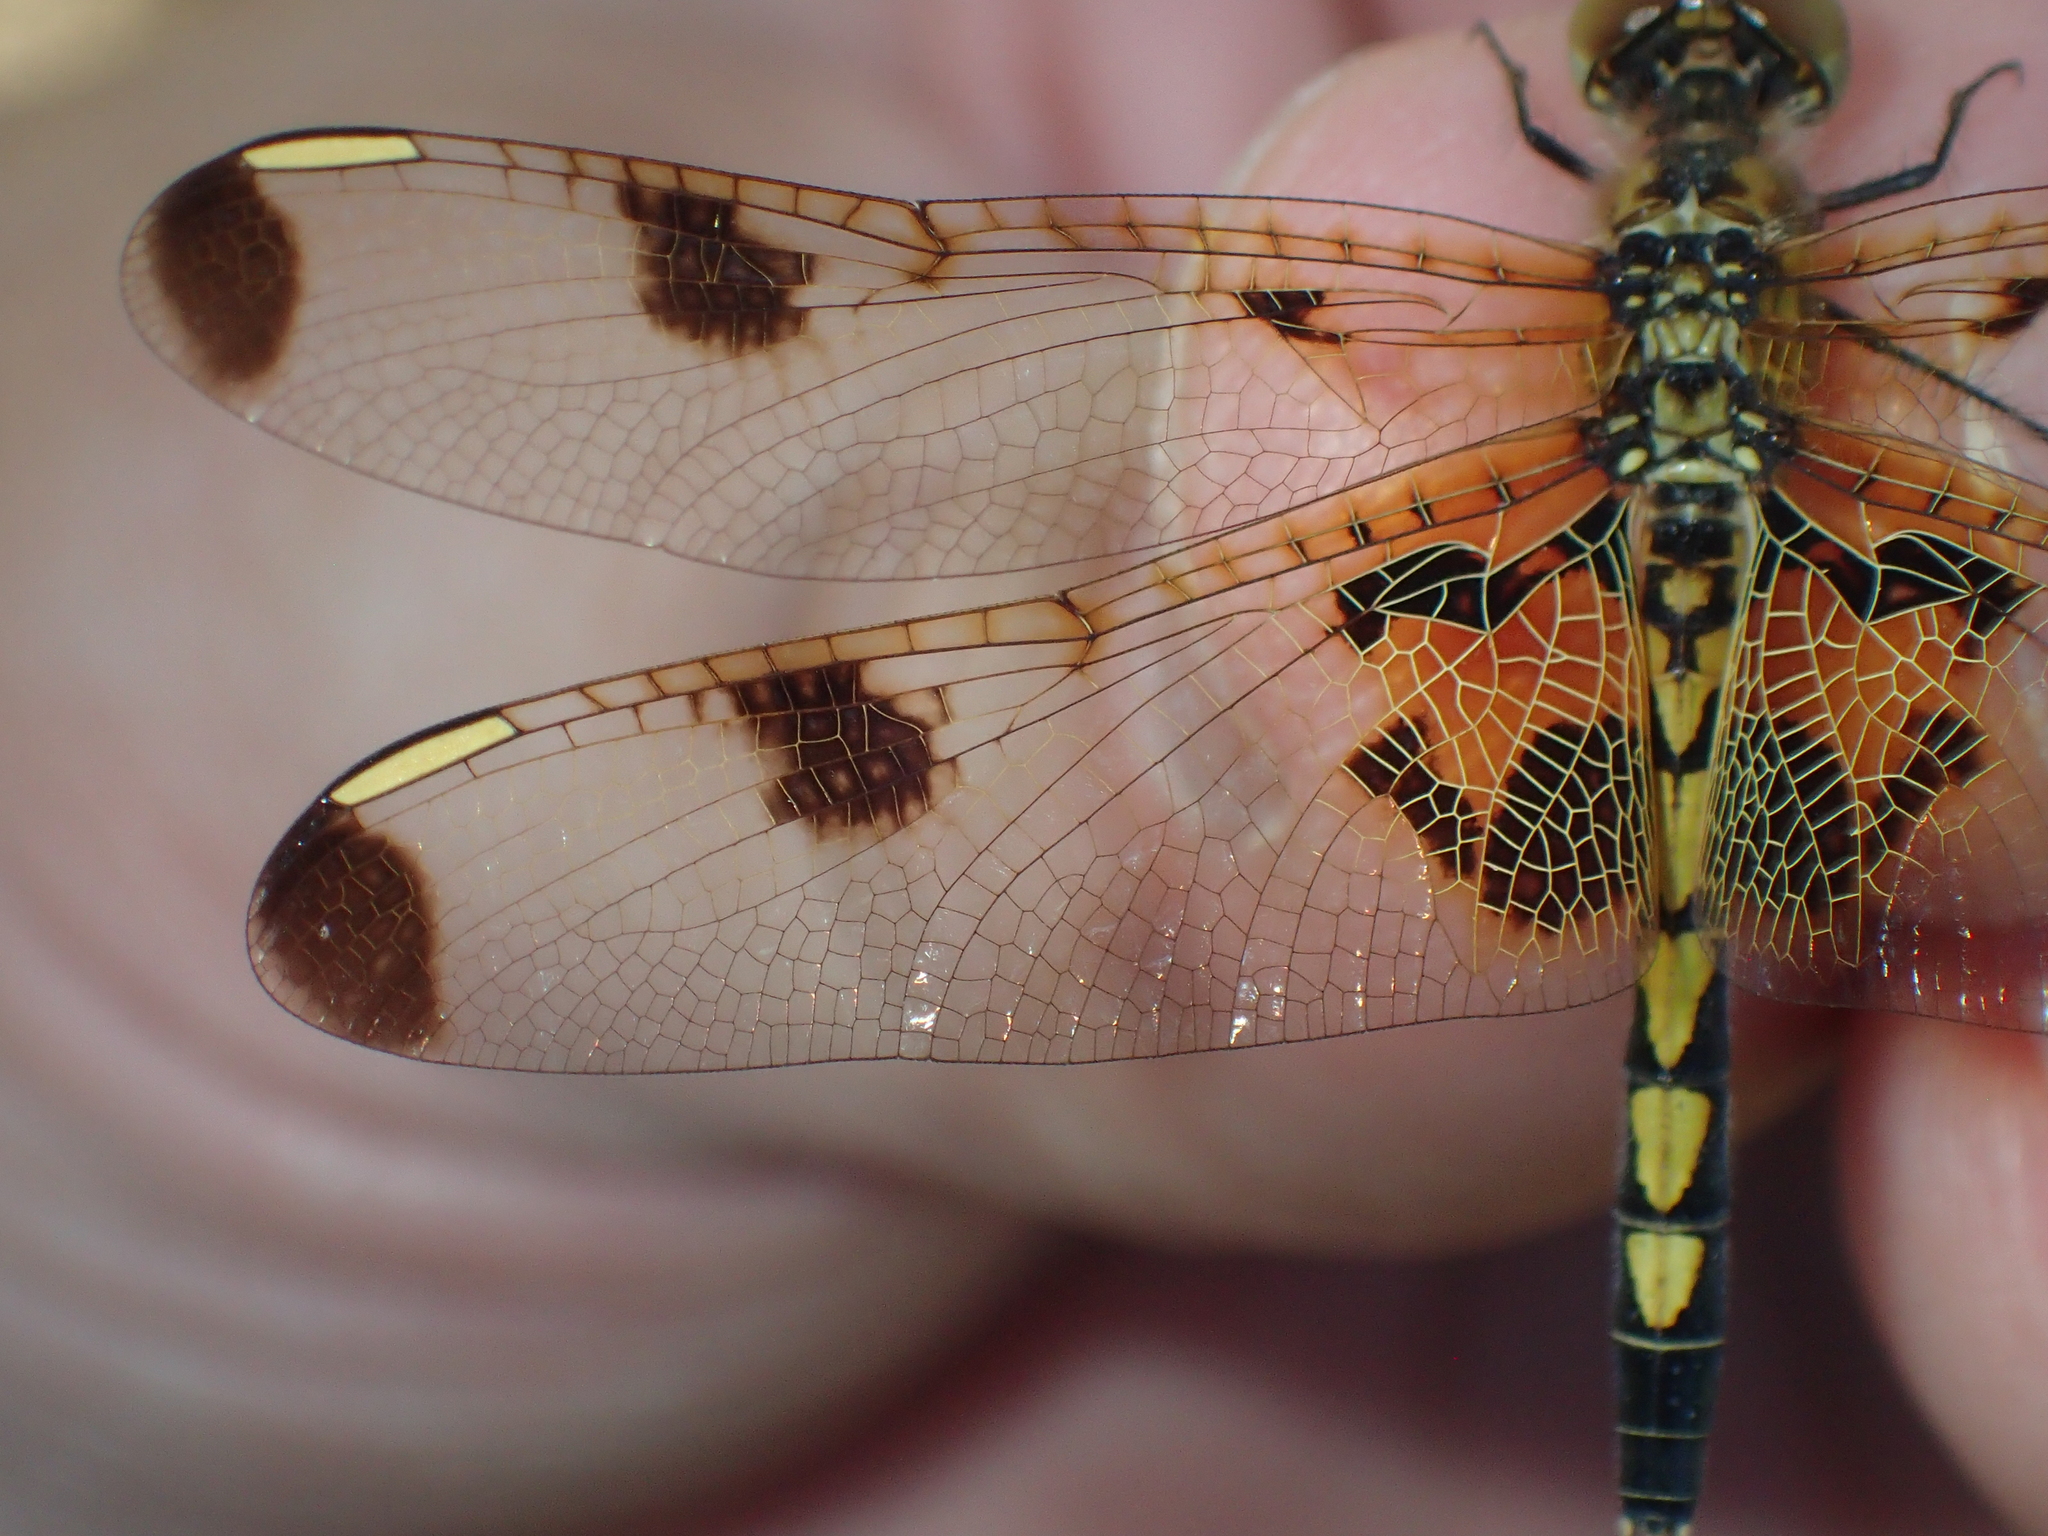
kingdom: Animalia
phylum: Arthropoda
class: Insecta
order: Odonata
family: Libellulidae
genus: Celithemis
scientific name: Celithemis elisa
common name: Calico pennant
